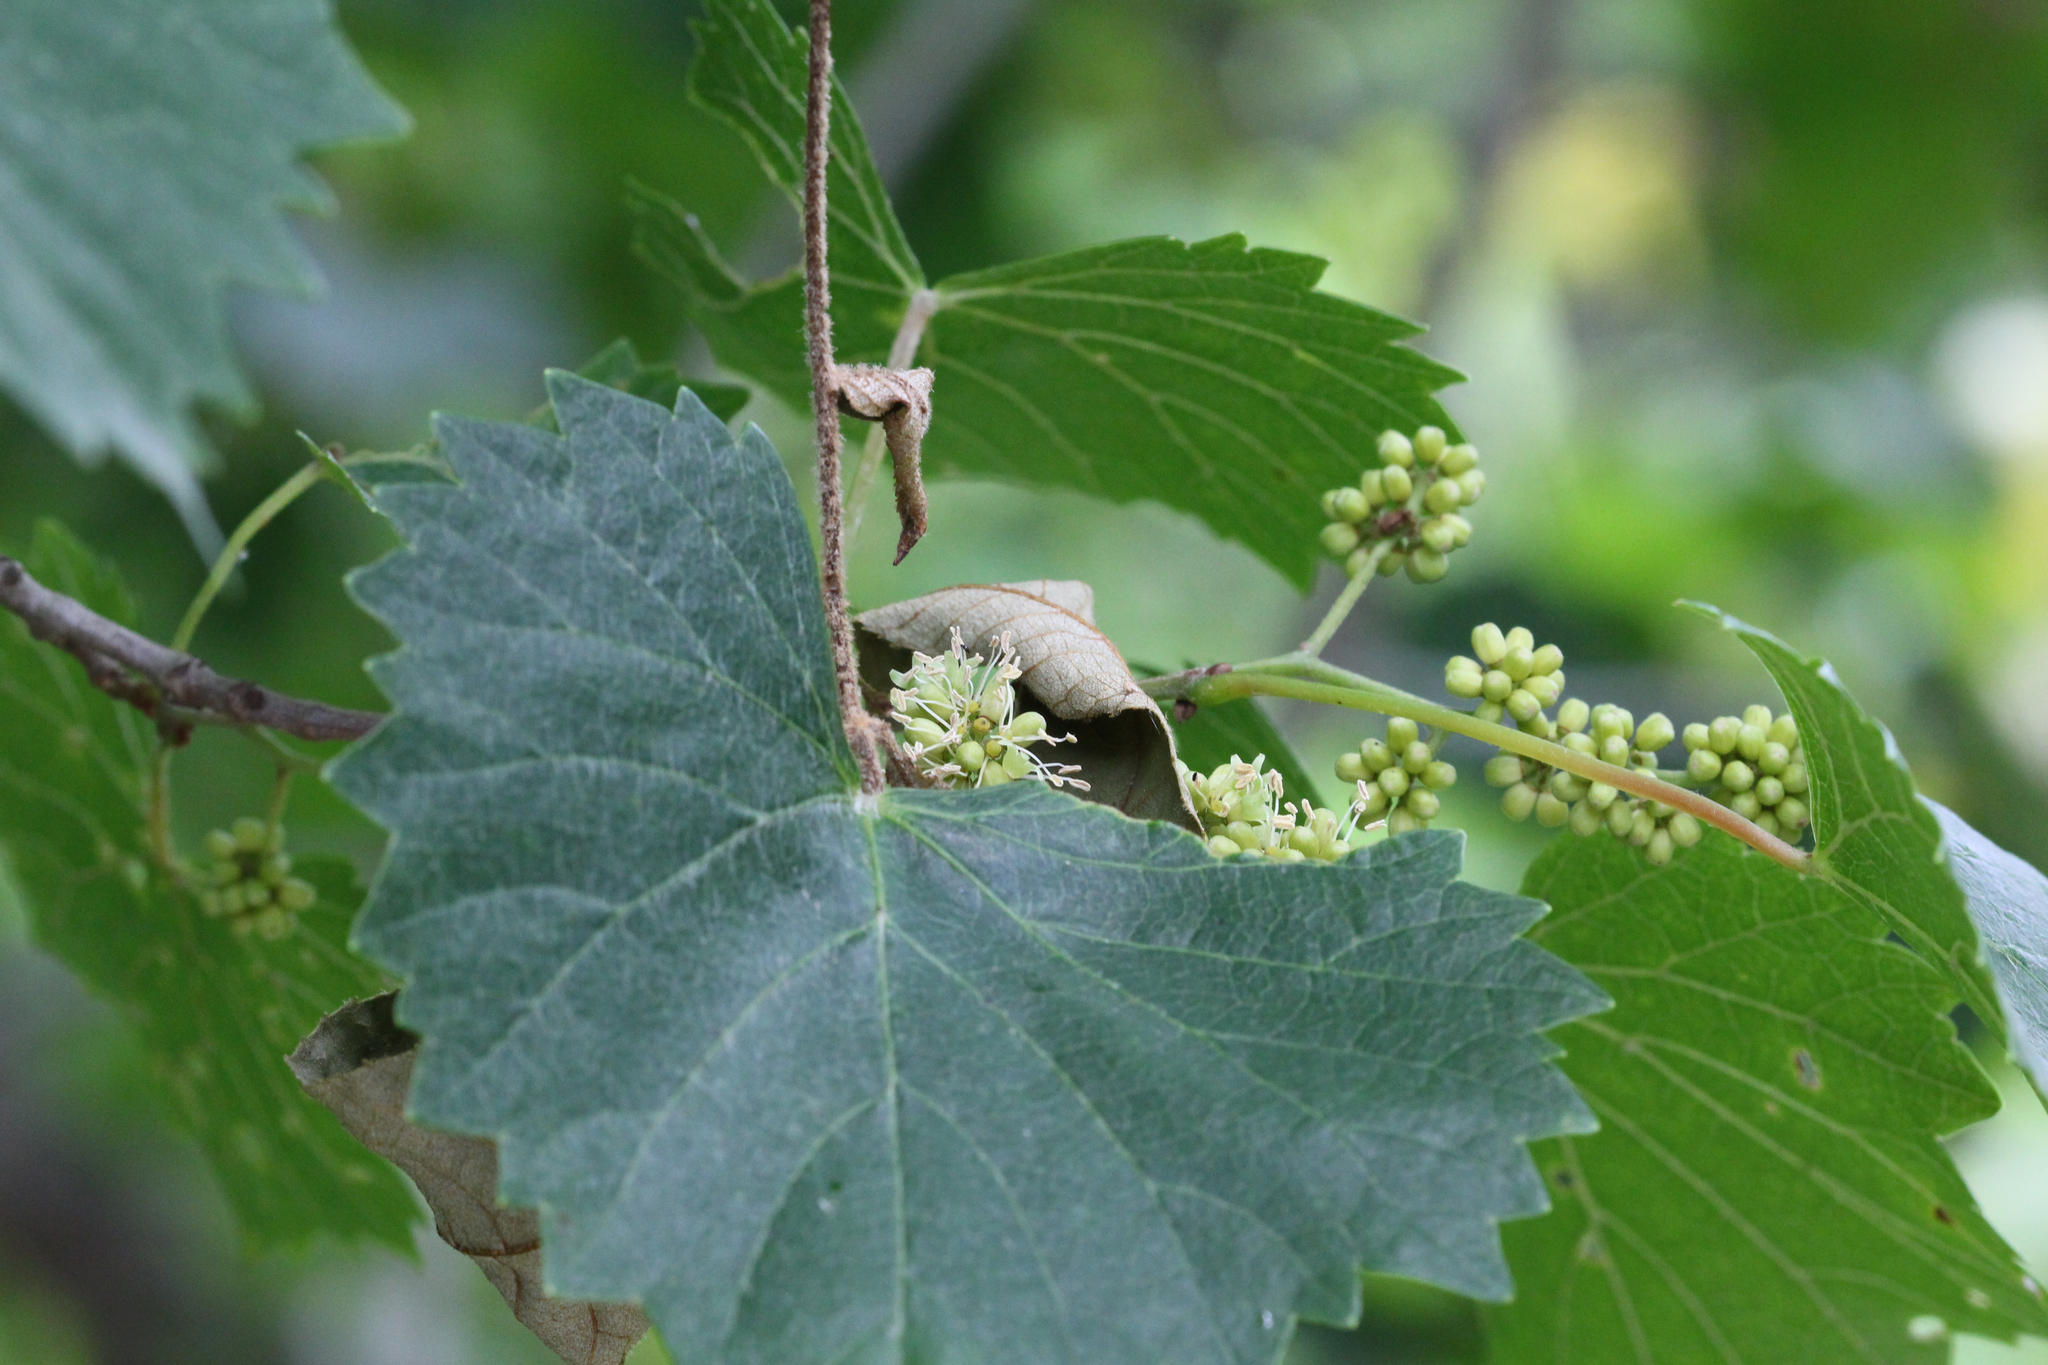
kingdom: Plantae
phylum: Tracheophyta
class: Magnoliopsida
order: Vitales
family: Vitaceae
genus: Vitis
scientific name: Vitis rotundifolia
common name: Muscadine grape
